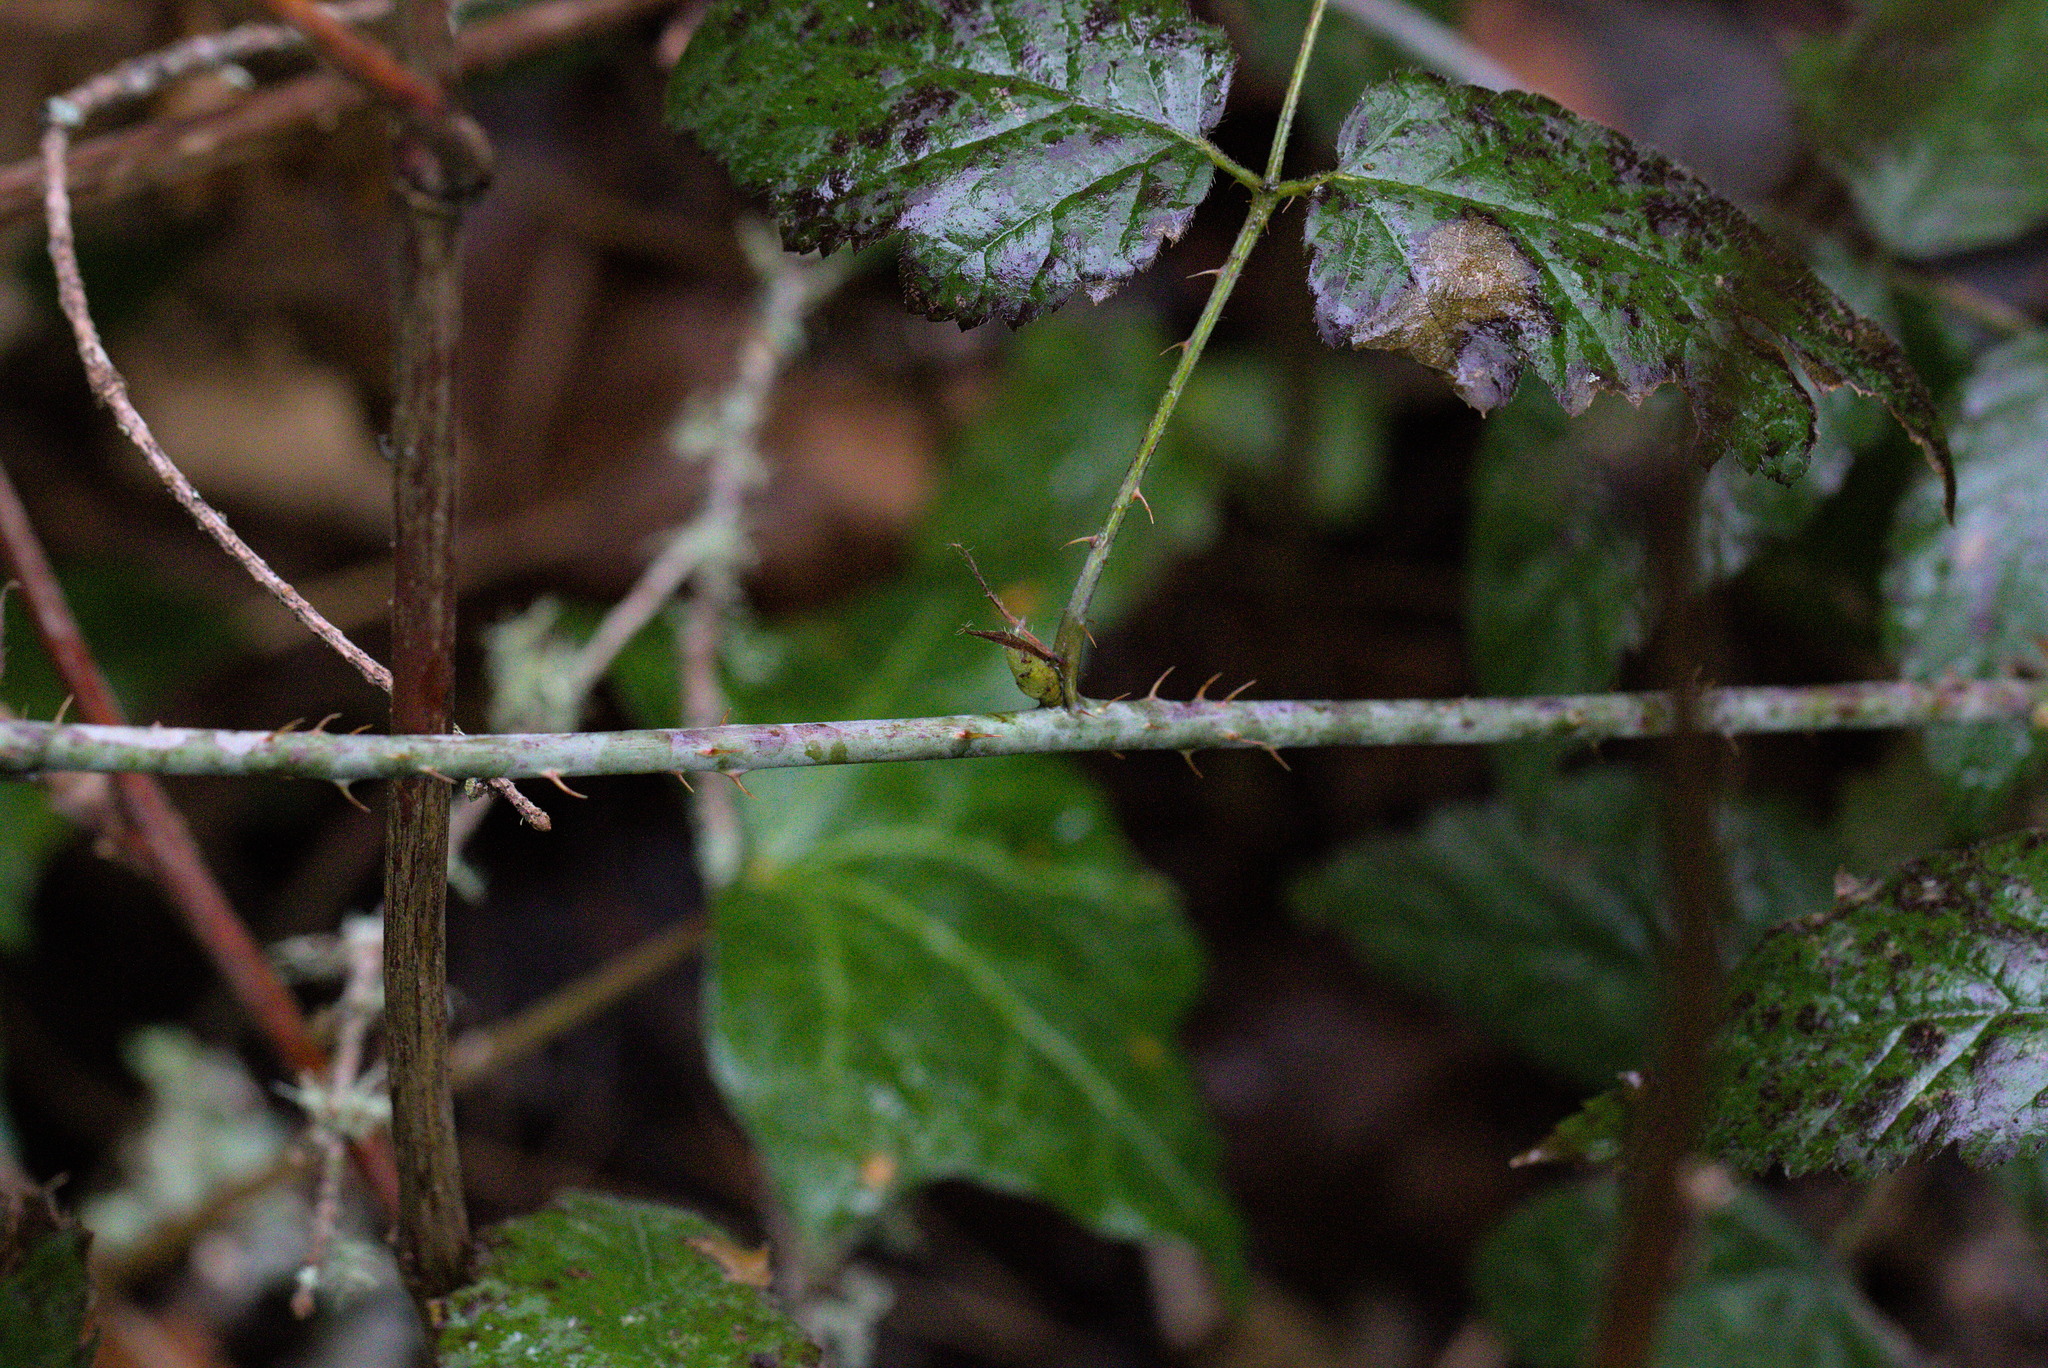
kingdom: Plantae
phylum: Tracheophyta
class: Magnoliopsida
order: Rosales
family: Rosaceae
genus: Rubus
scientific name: Rubus ursinus
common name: Pacific blackberry
